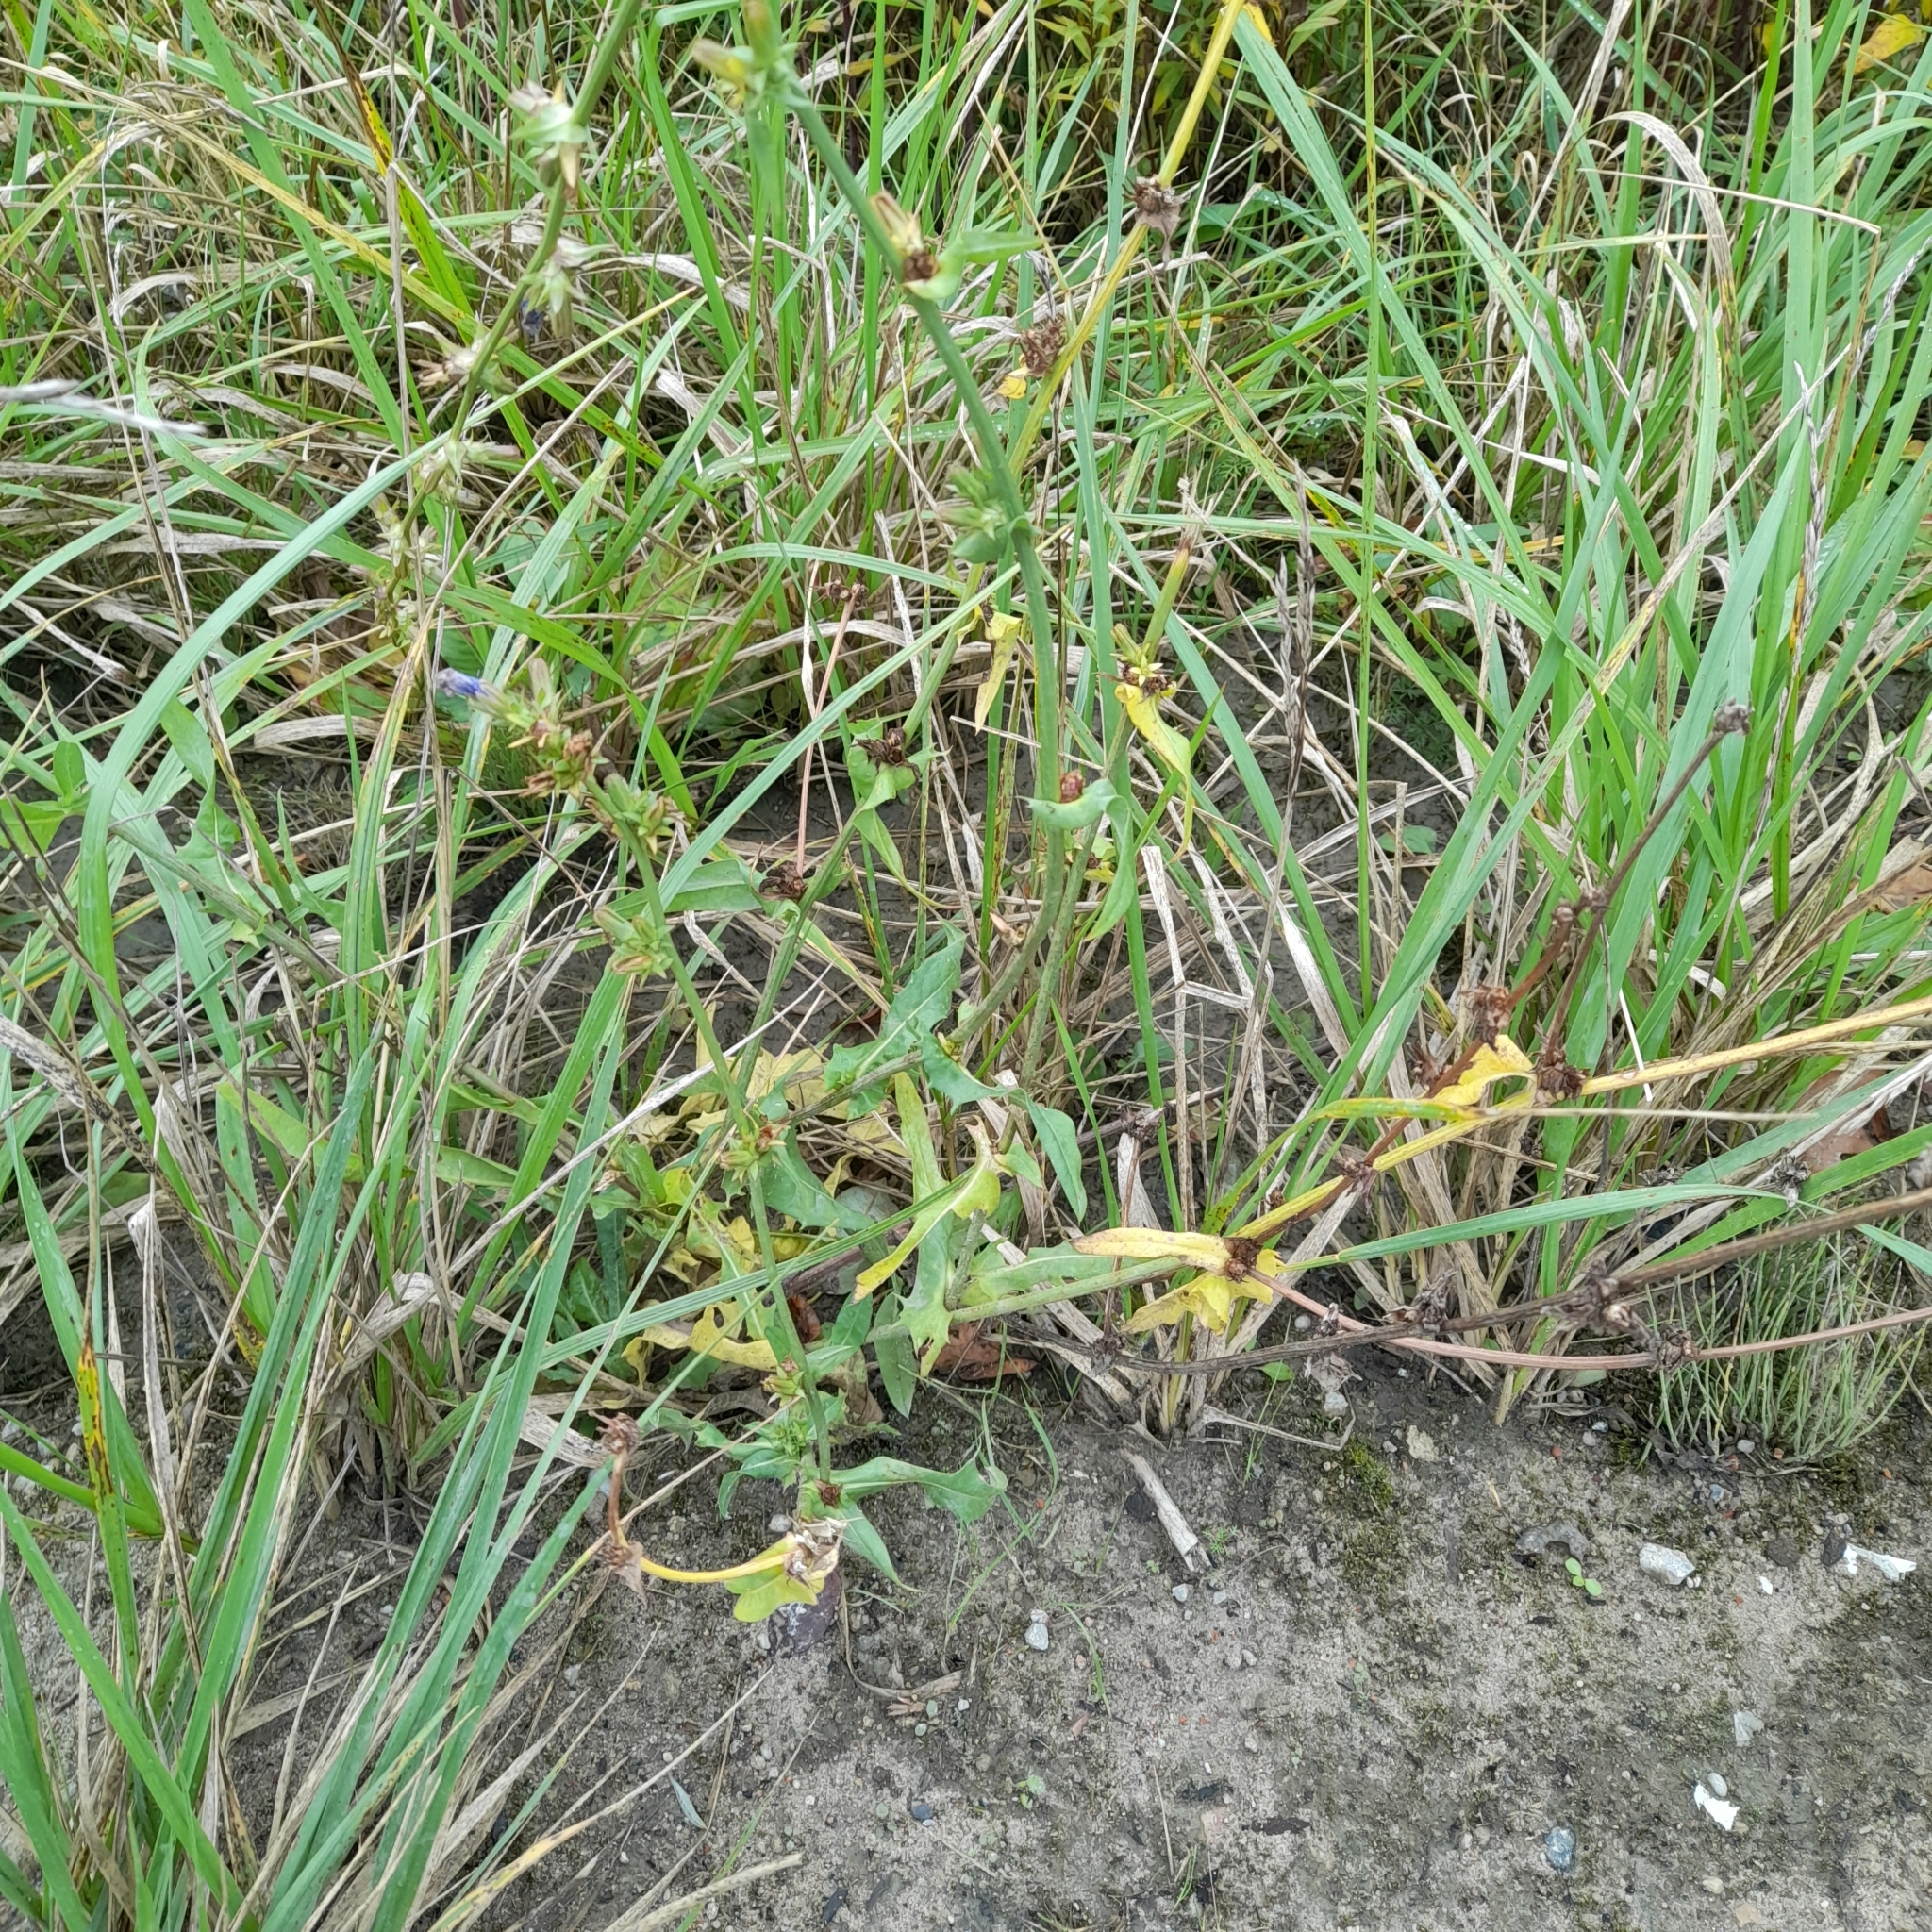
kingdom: Plantae
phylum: Tracheophyta
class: Magnoliopsida
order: Asterales
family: Asteraceae
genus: Cichorium
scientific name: Cichorium intybus
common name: Chicory
